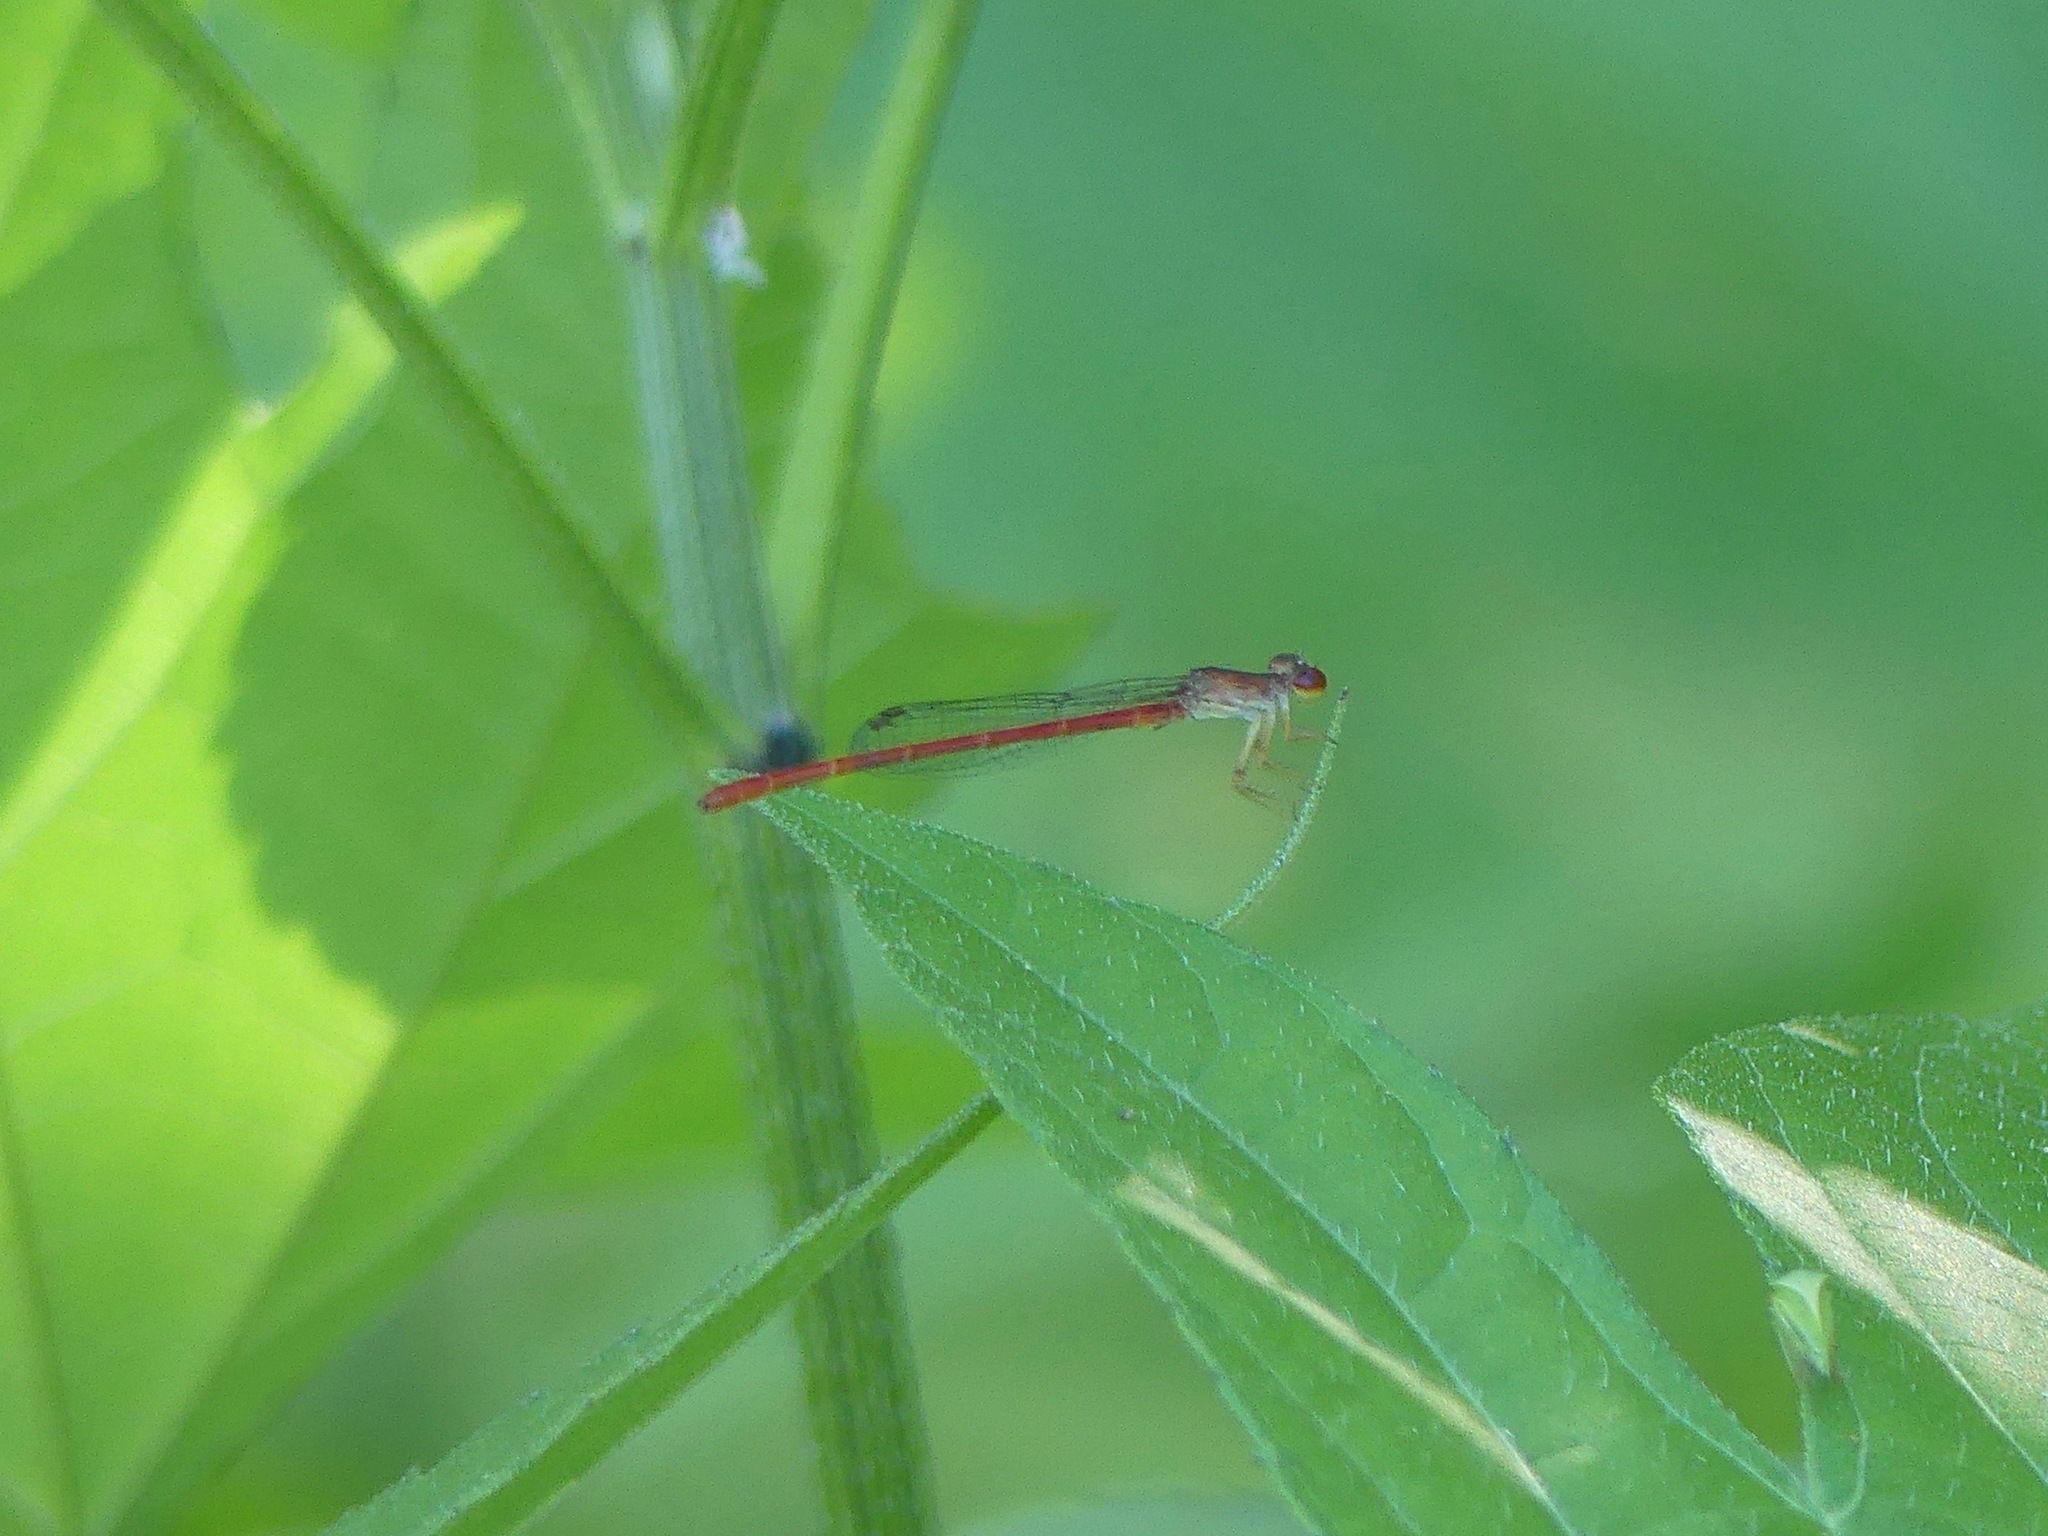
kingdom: Animalia
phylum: Arthropoda
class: Insecta
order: Odonata
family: Coenagrionidae
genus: Telebasis
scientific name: Telebasis byersi
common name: Duckweed firetail
